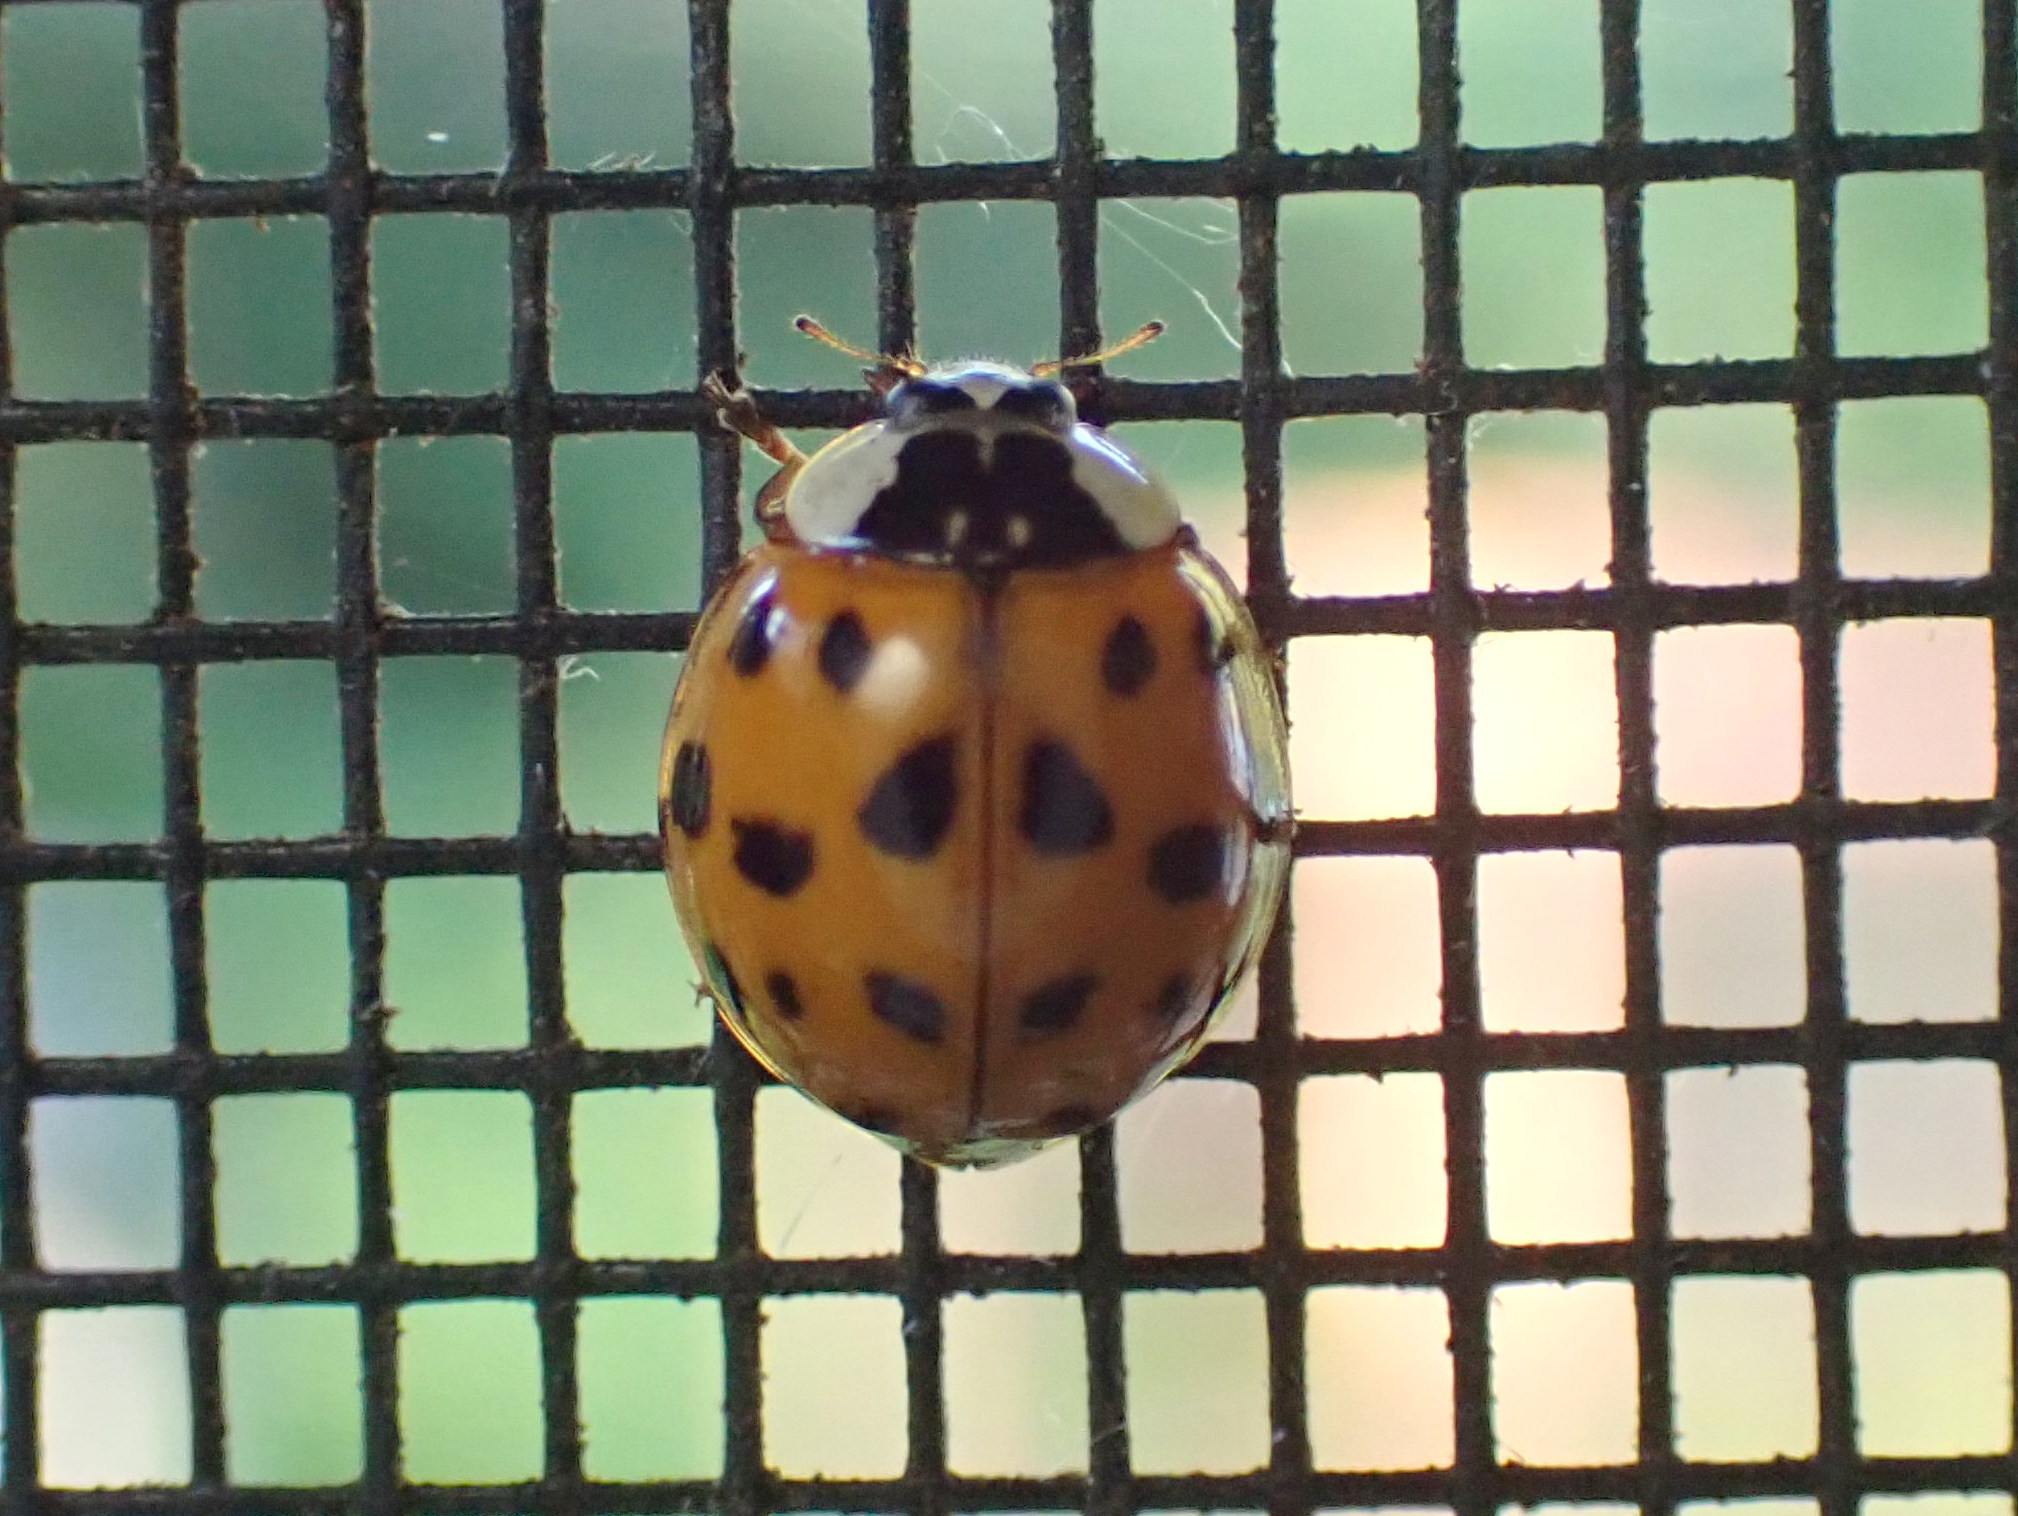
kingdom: Animalia
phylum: Arthropoda
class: Insecta
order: Coleoptera
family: Coccinellidae
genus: Harmonia
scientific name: Harmonia axyridis
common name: Harlequin ladybird
